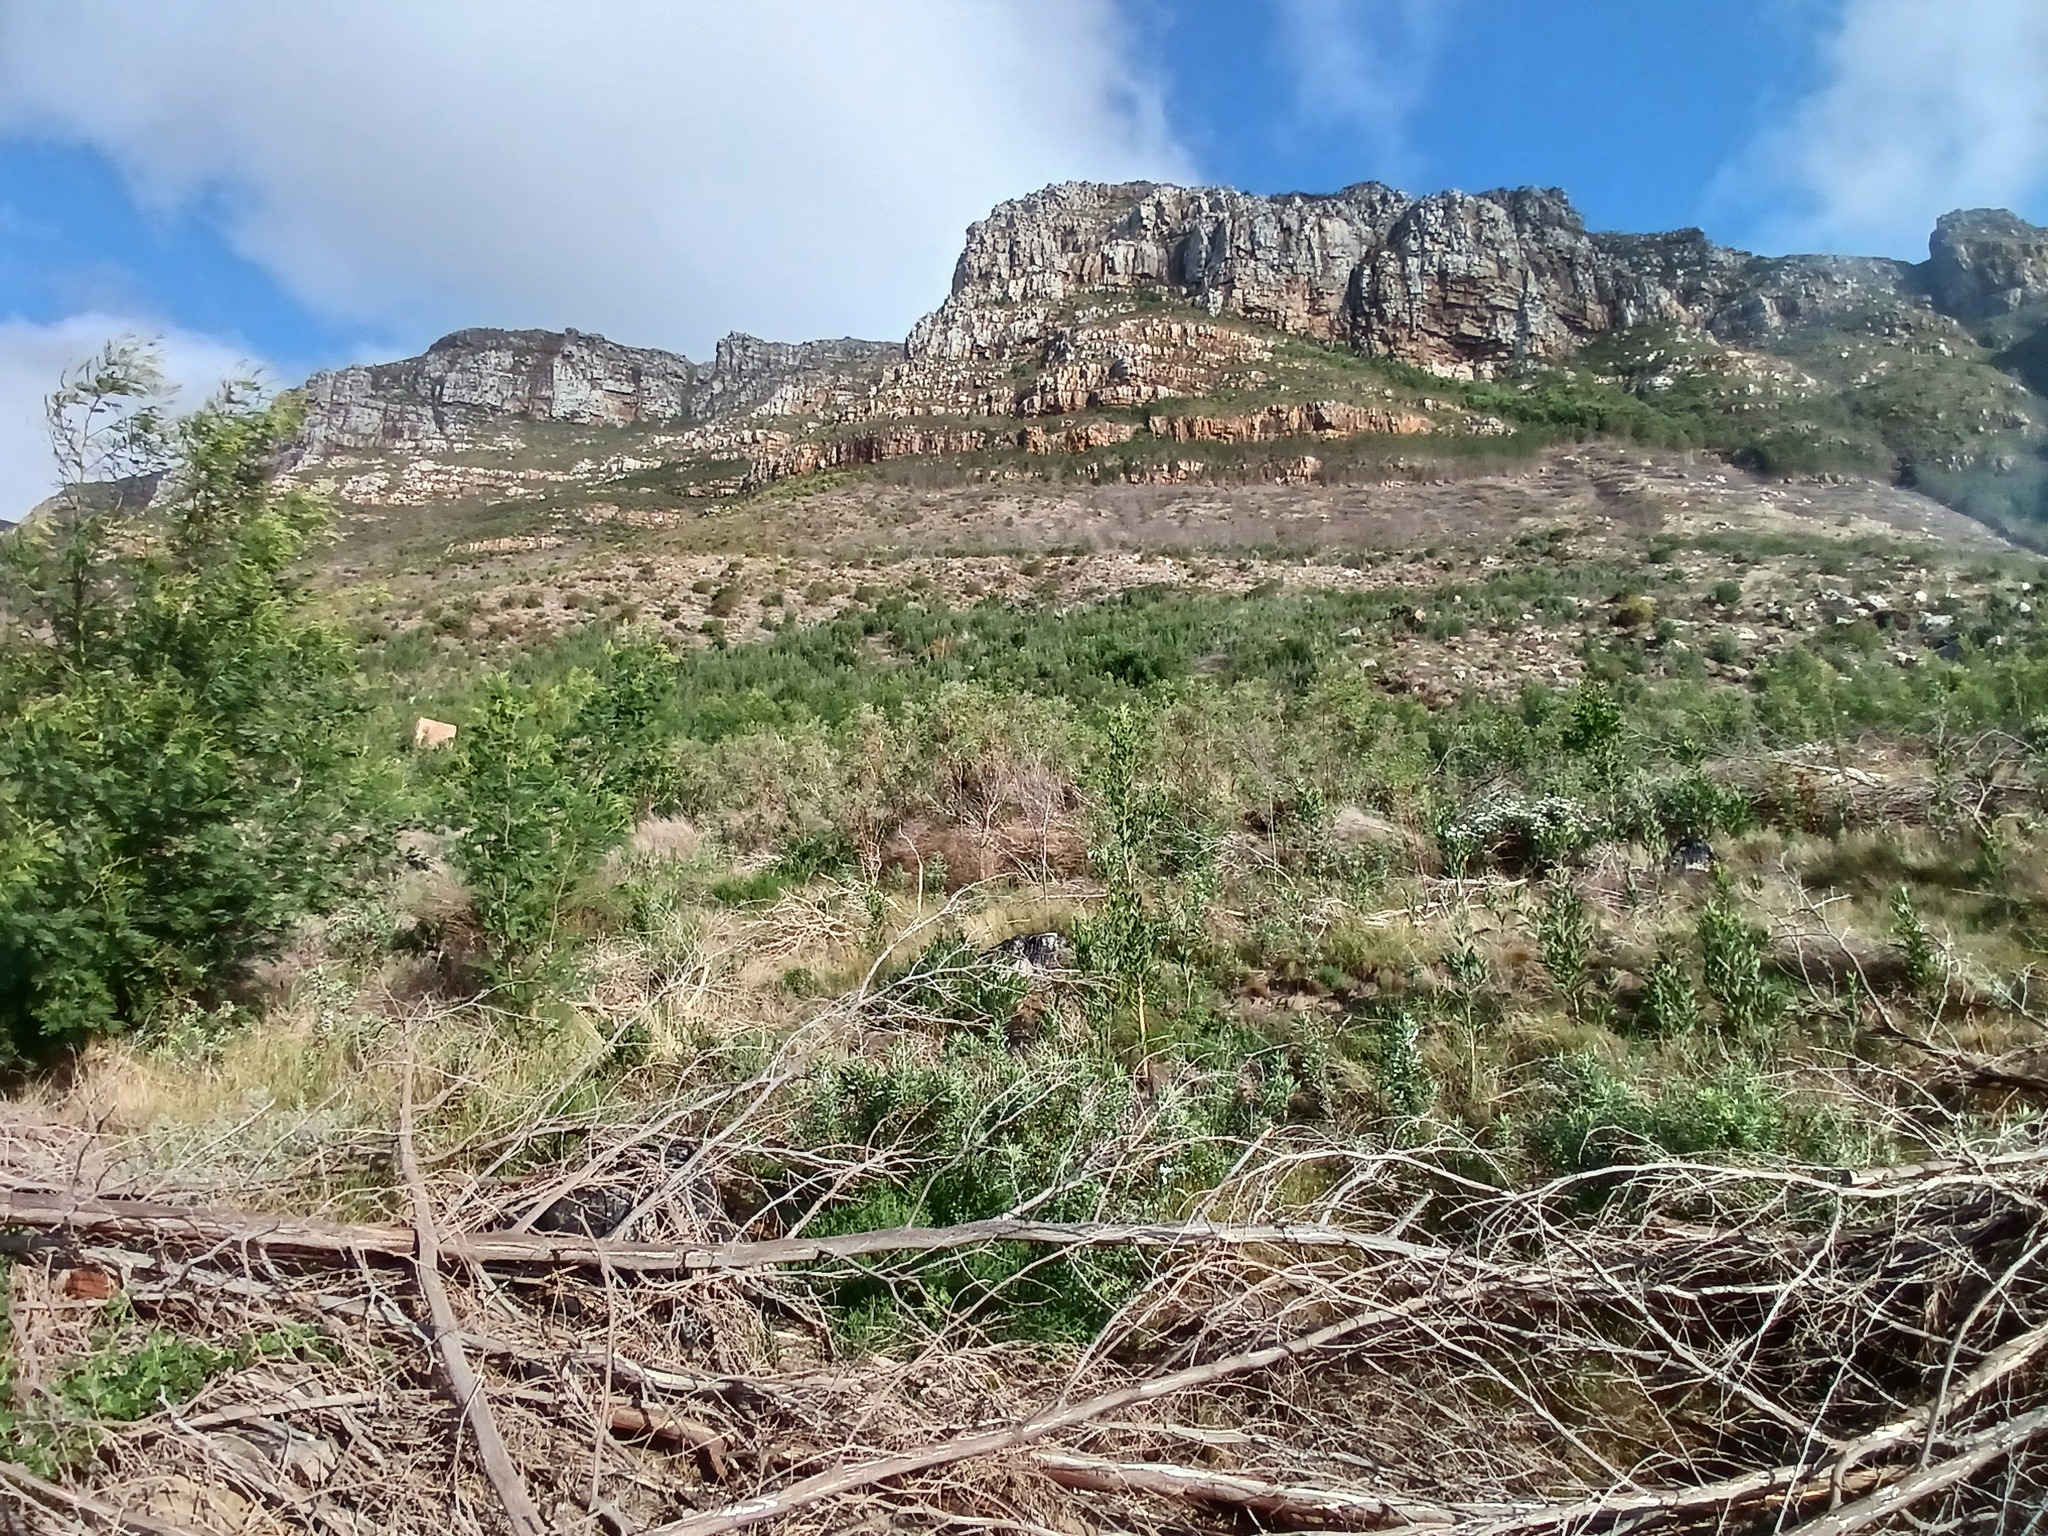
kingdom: Plantae
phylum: Tracheophyta
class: Magnoliopsida
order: Fabales
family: Fabaceae
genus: Acacia
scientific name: Acacia melanoxylon
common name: Blackwood
